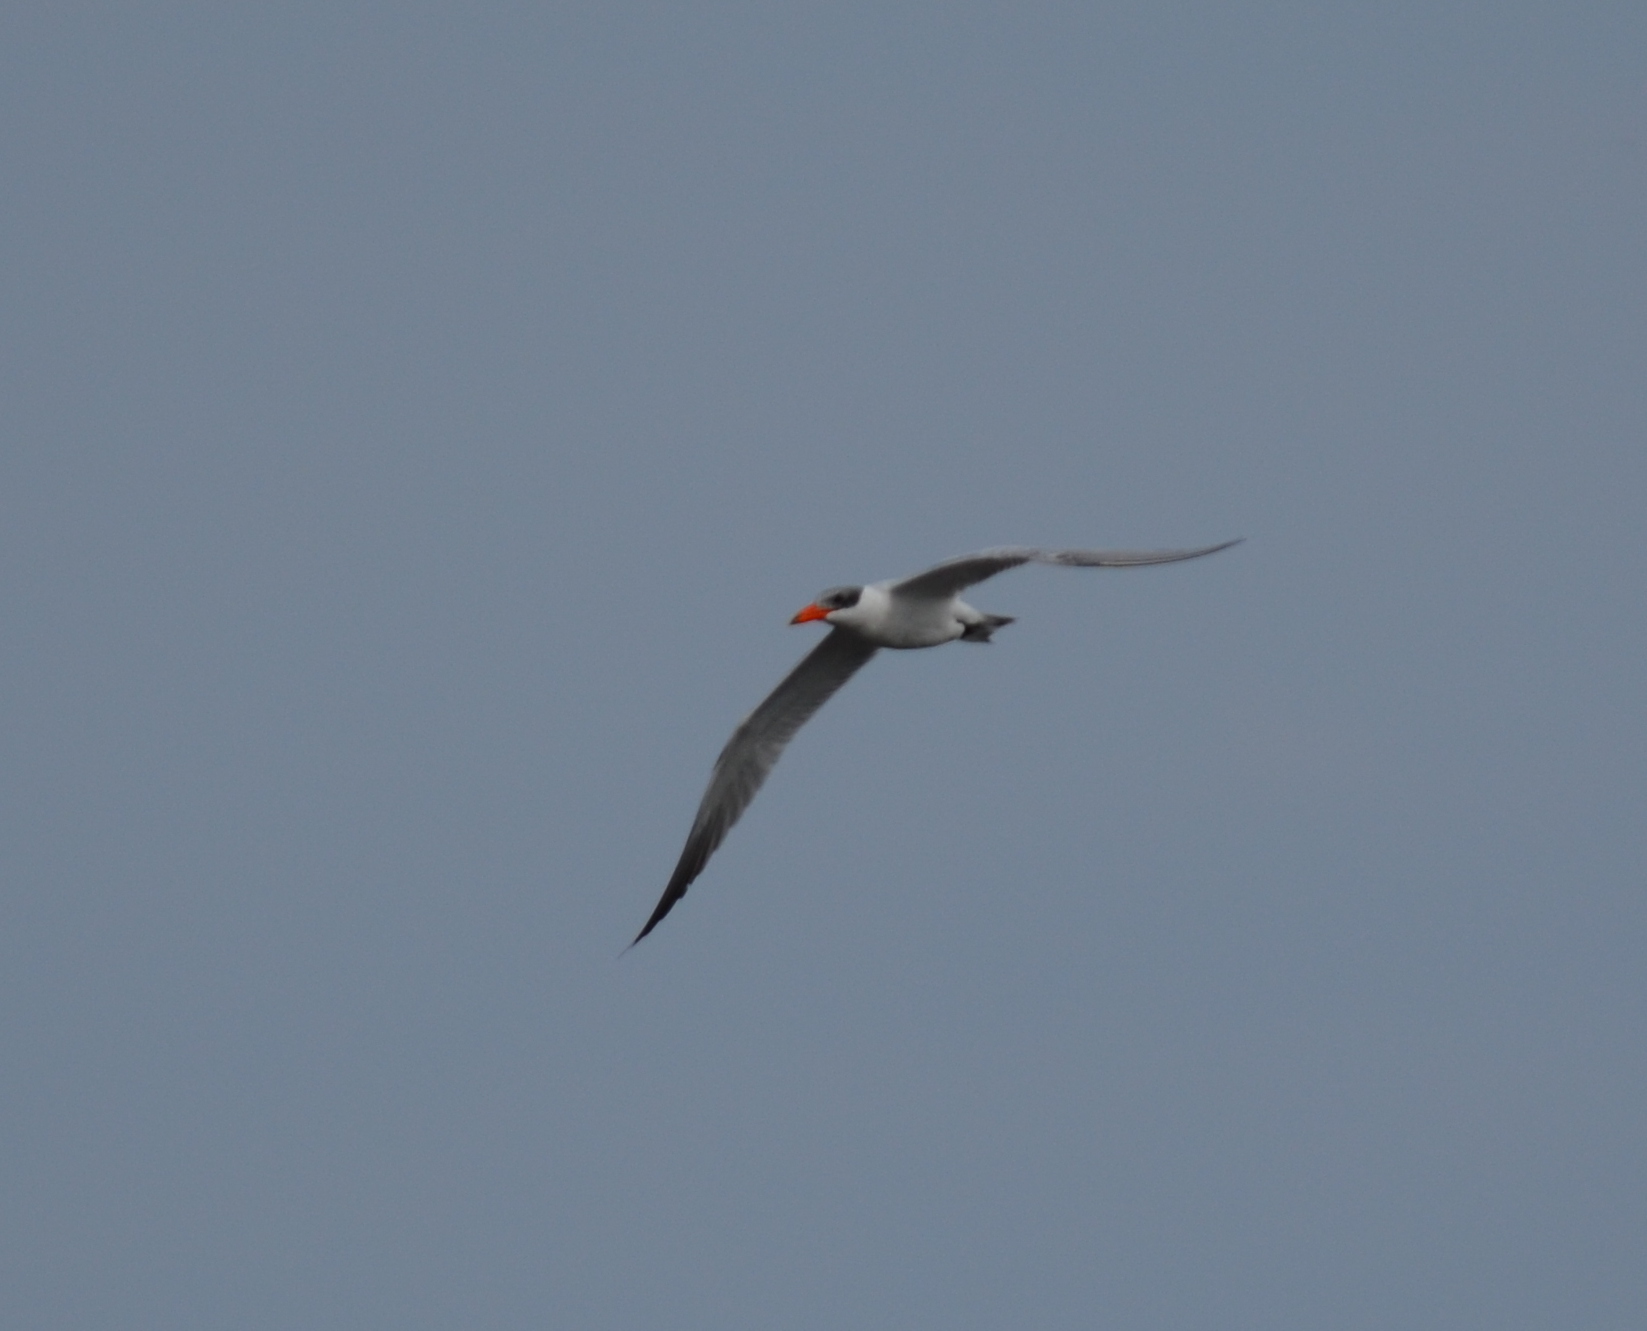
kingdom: Animalia
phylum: Chordata
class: Aves
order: Charadriiformes
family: Laridae
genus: Hydroprogne
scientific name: Hydroprogne caspia
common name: Caspian tern
